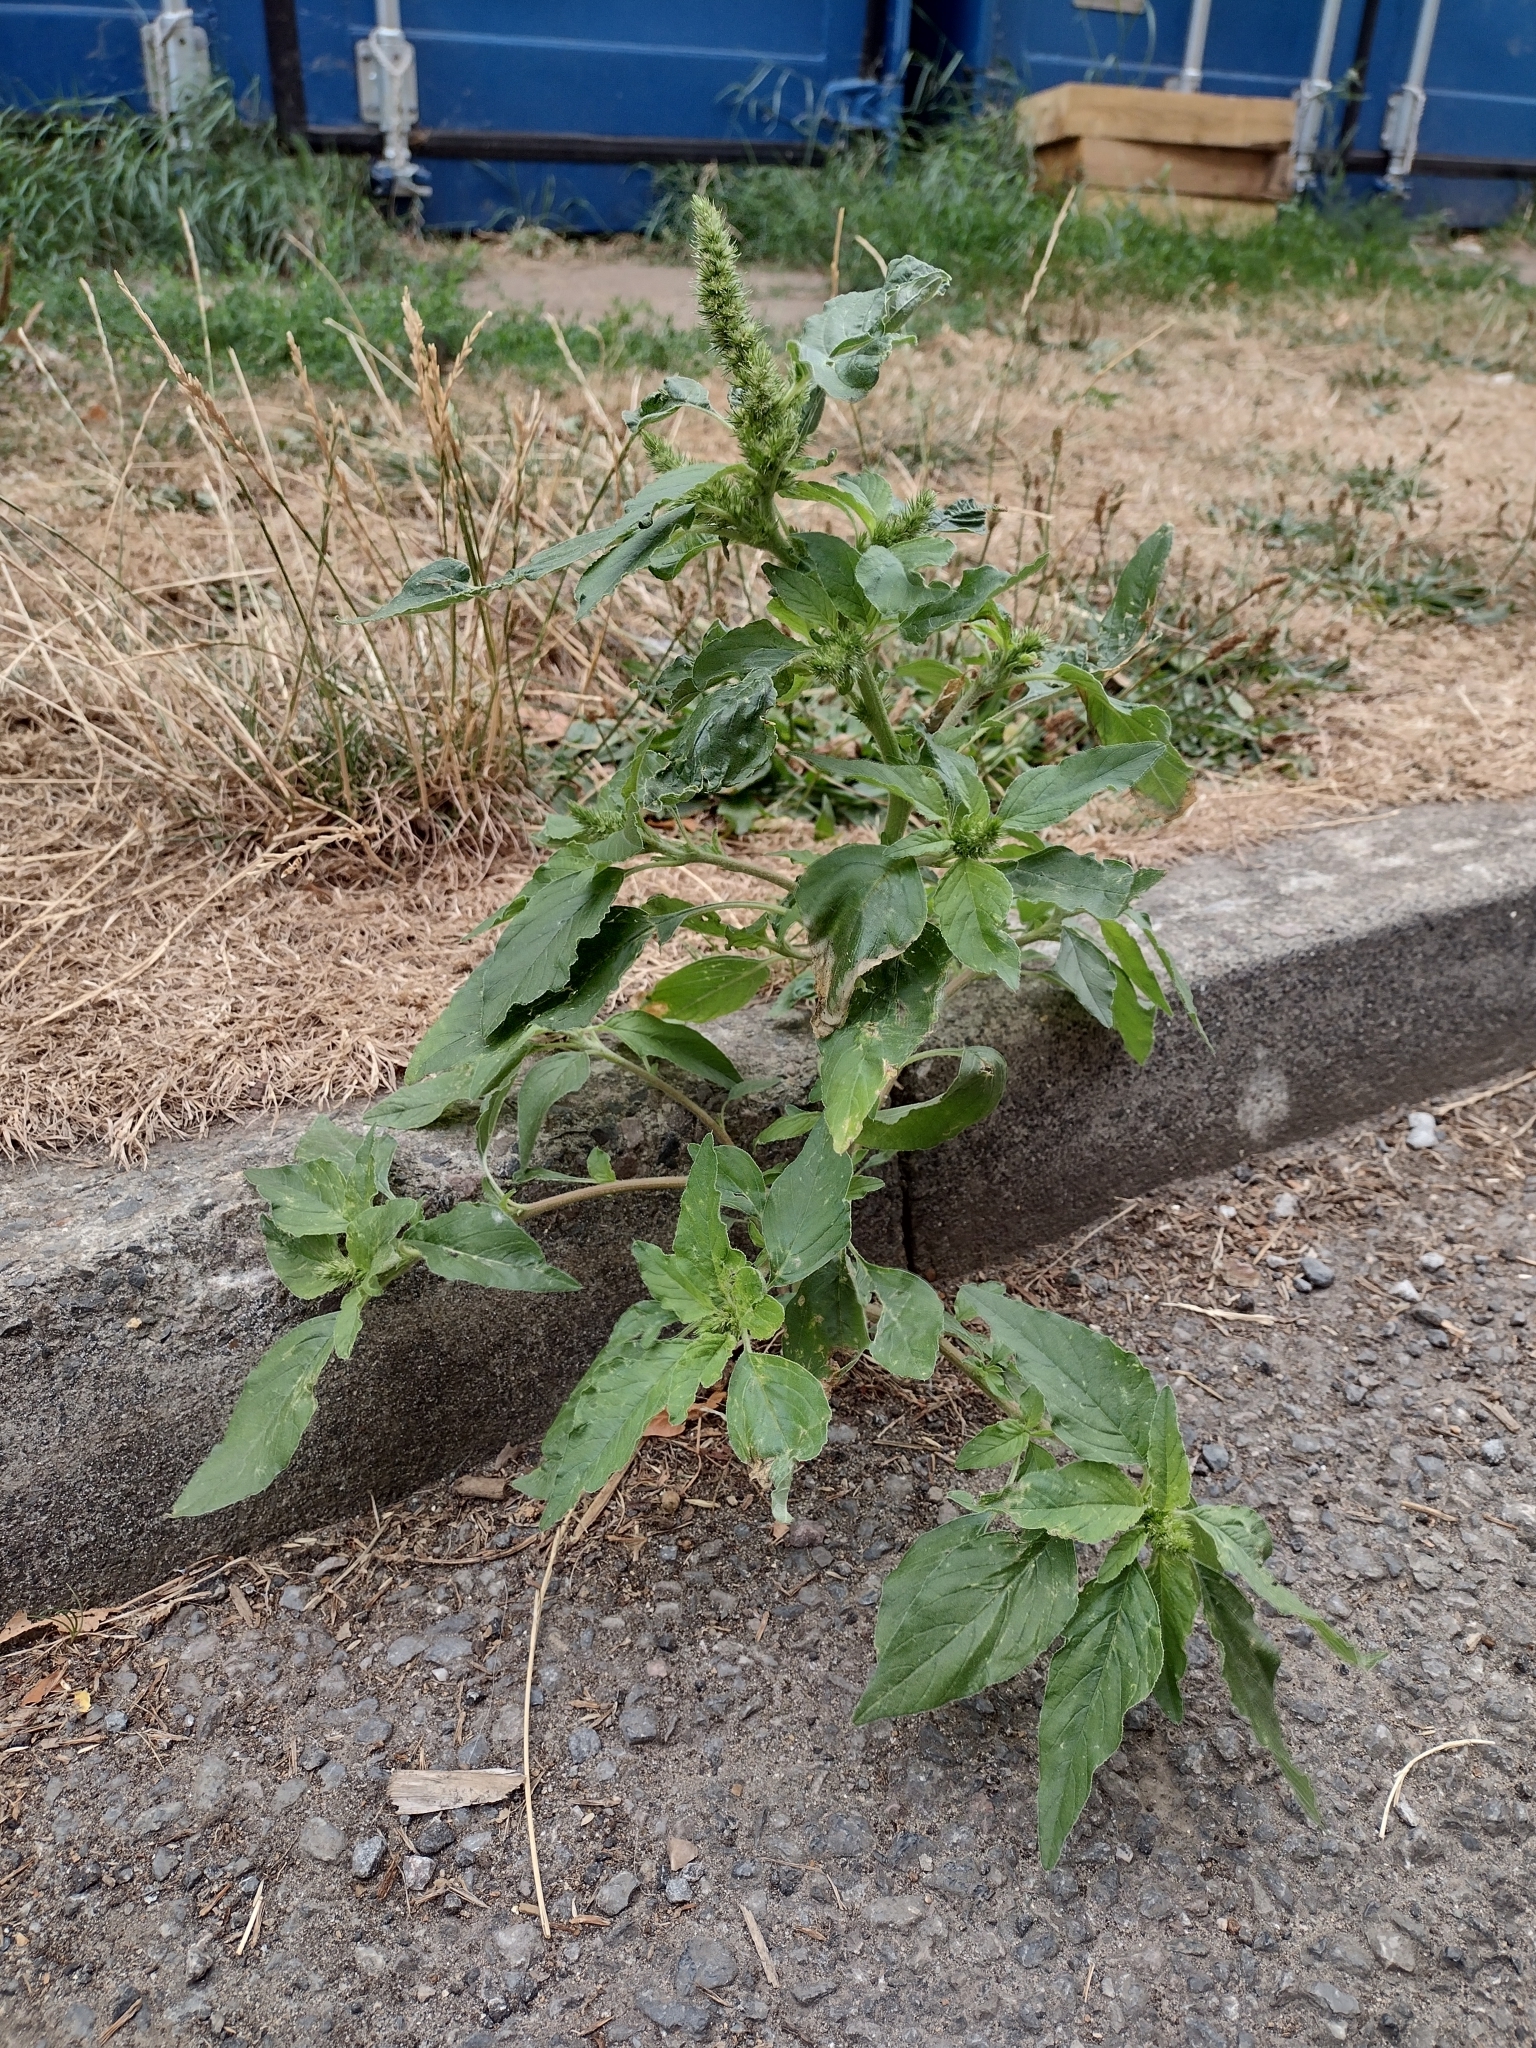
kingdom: Plantae
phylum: Tracheophyta
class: Magnoliopsida
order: Caryophyllales
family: Amaranthaceae
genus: Amaranthus
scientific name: Amaranthus retroflexus
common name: Redroot amaranth
